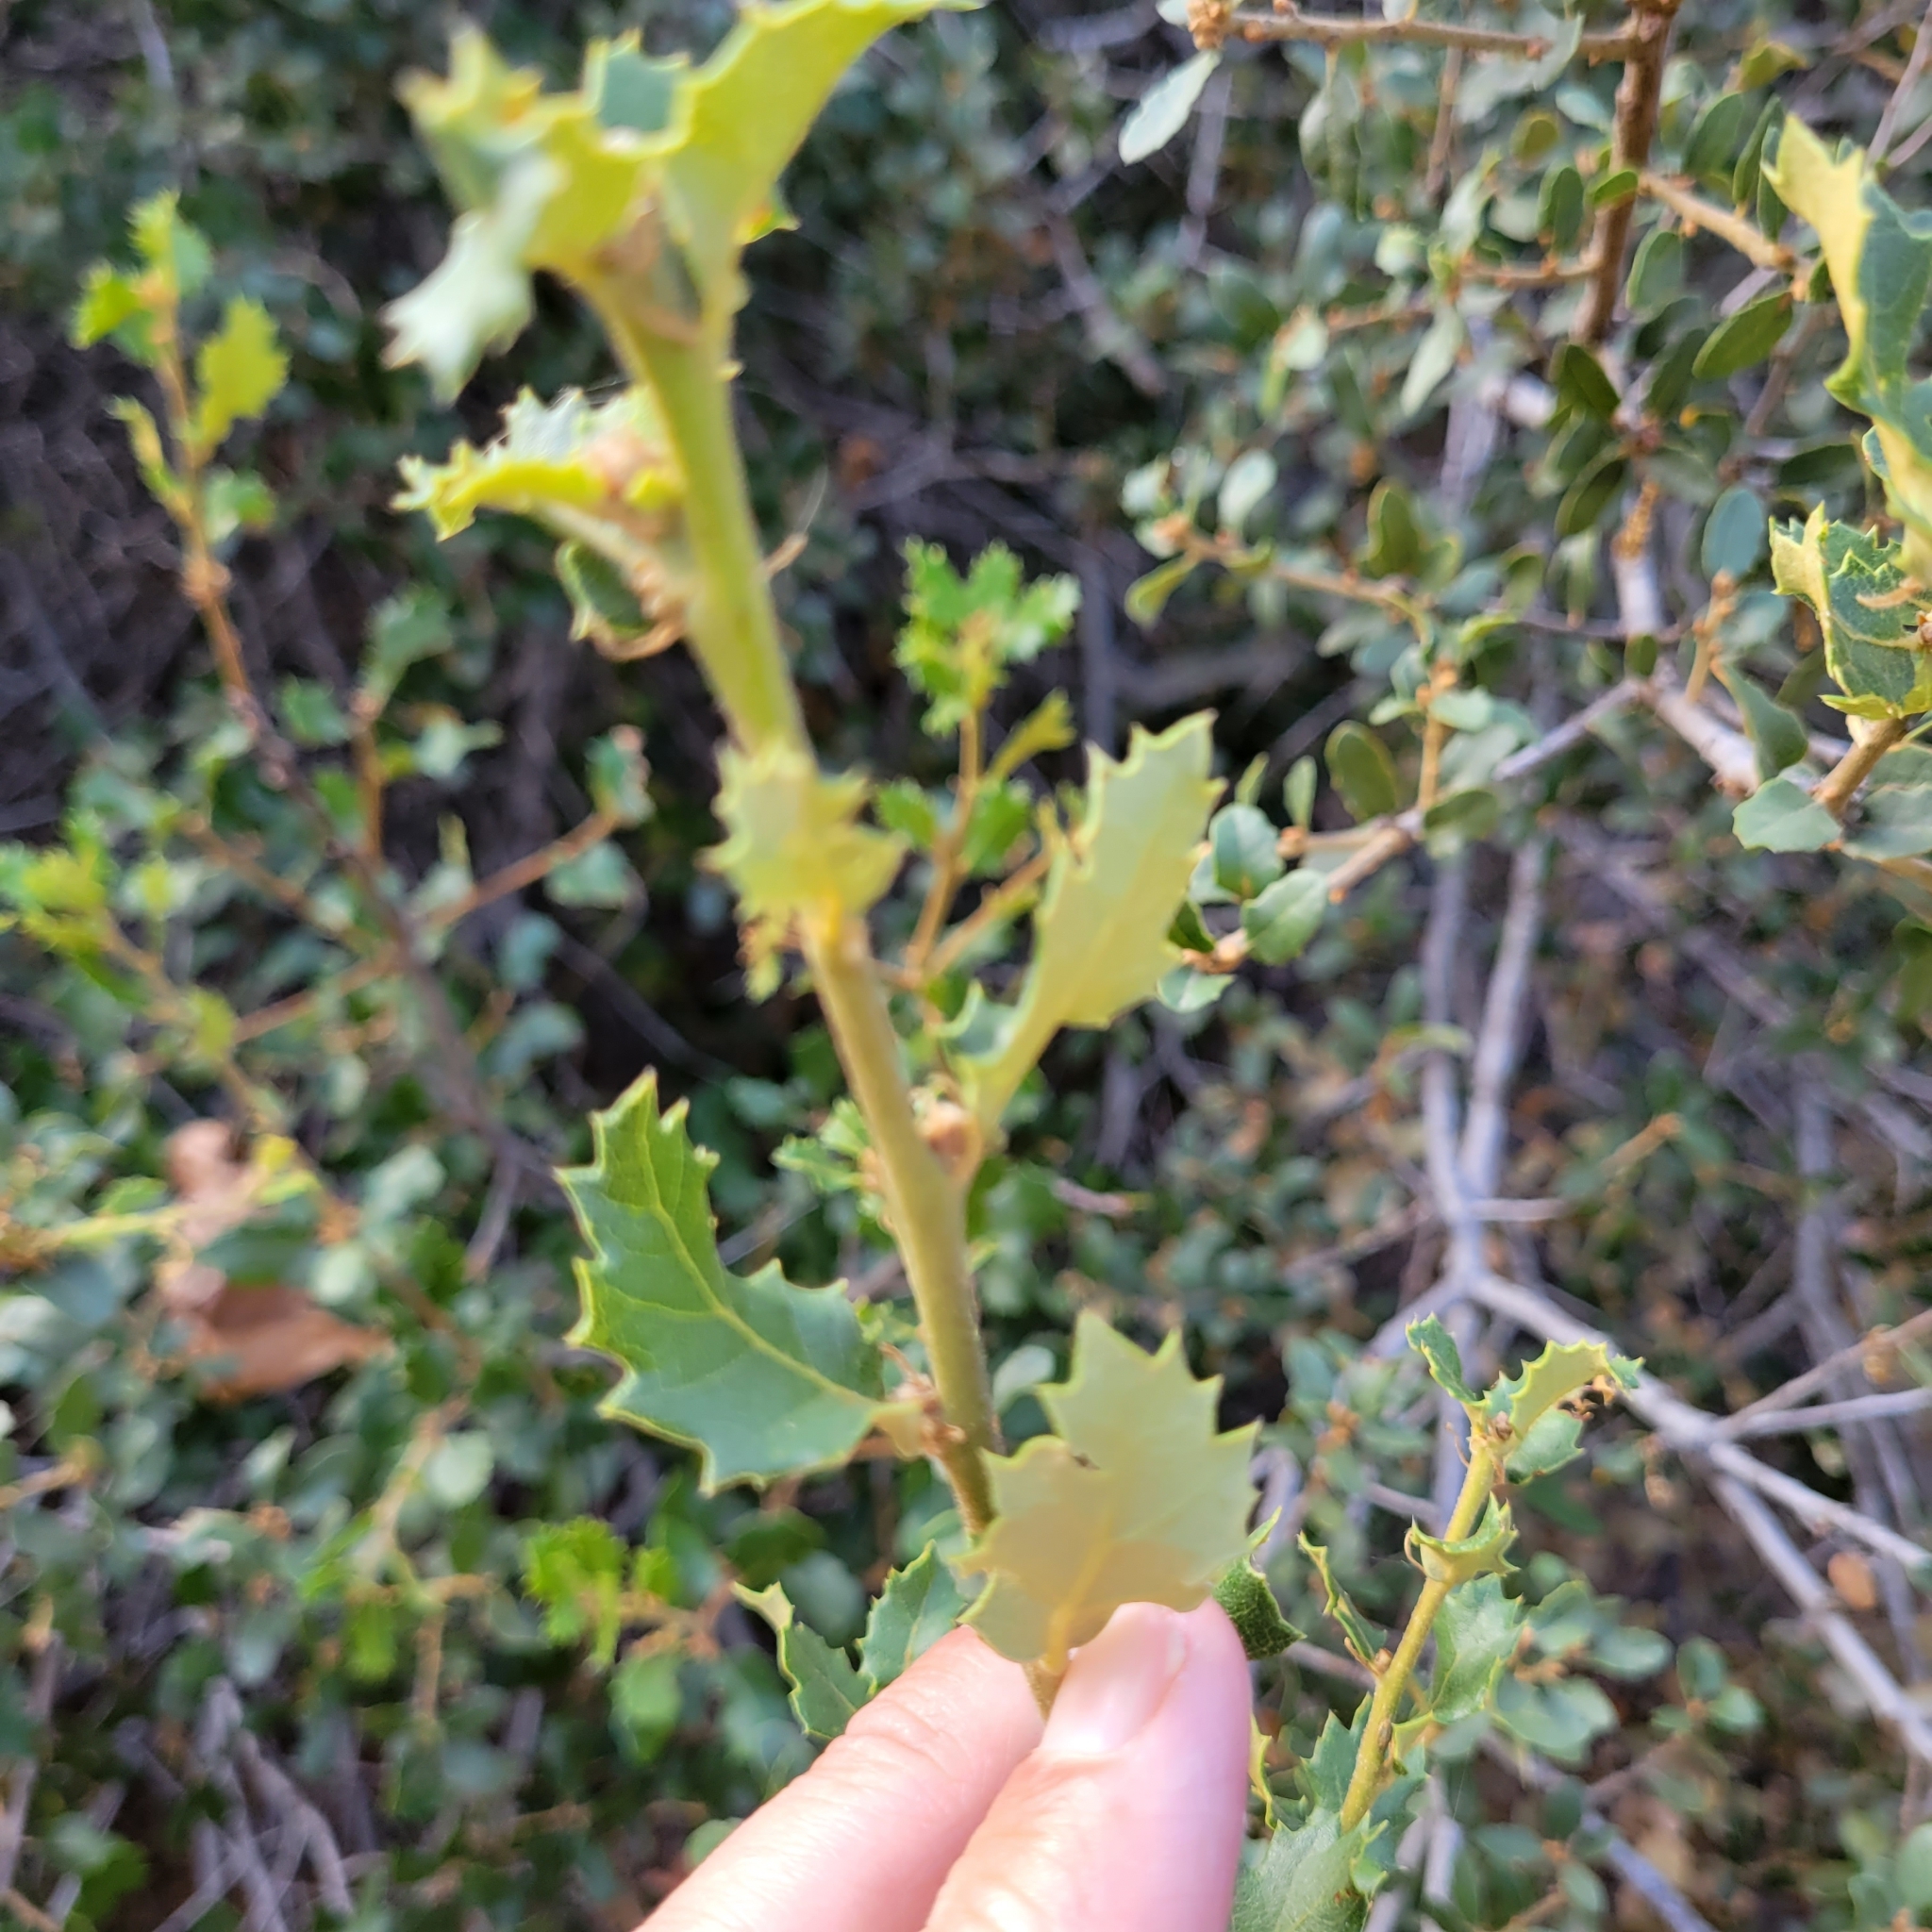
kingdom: Plantae
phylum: Tracheophyta
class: Magnoliopsida
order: Fagales
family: Fagaceae
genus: Quercus
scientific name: Quercus chrysolepis
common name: Canyon live oak
